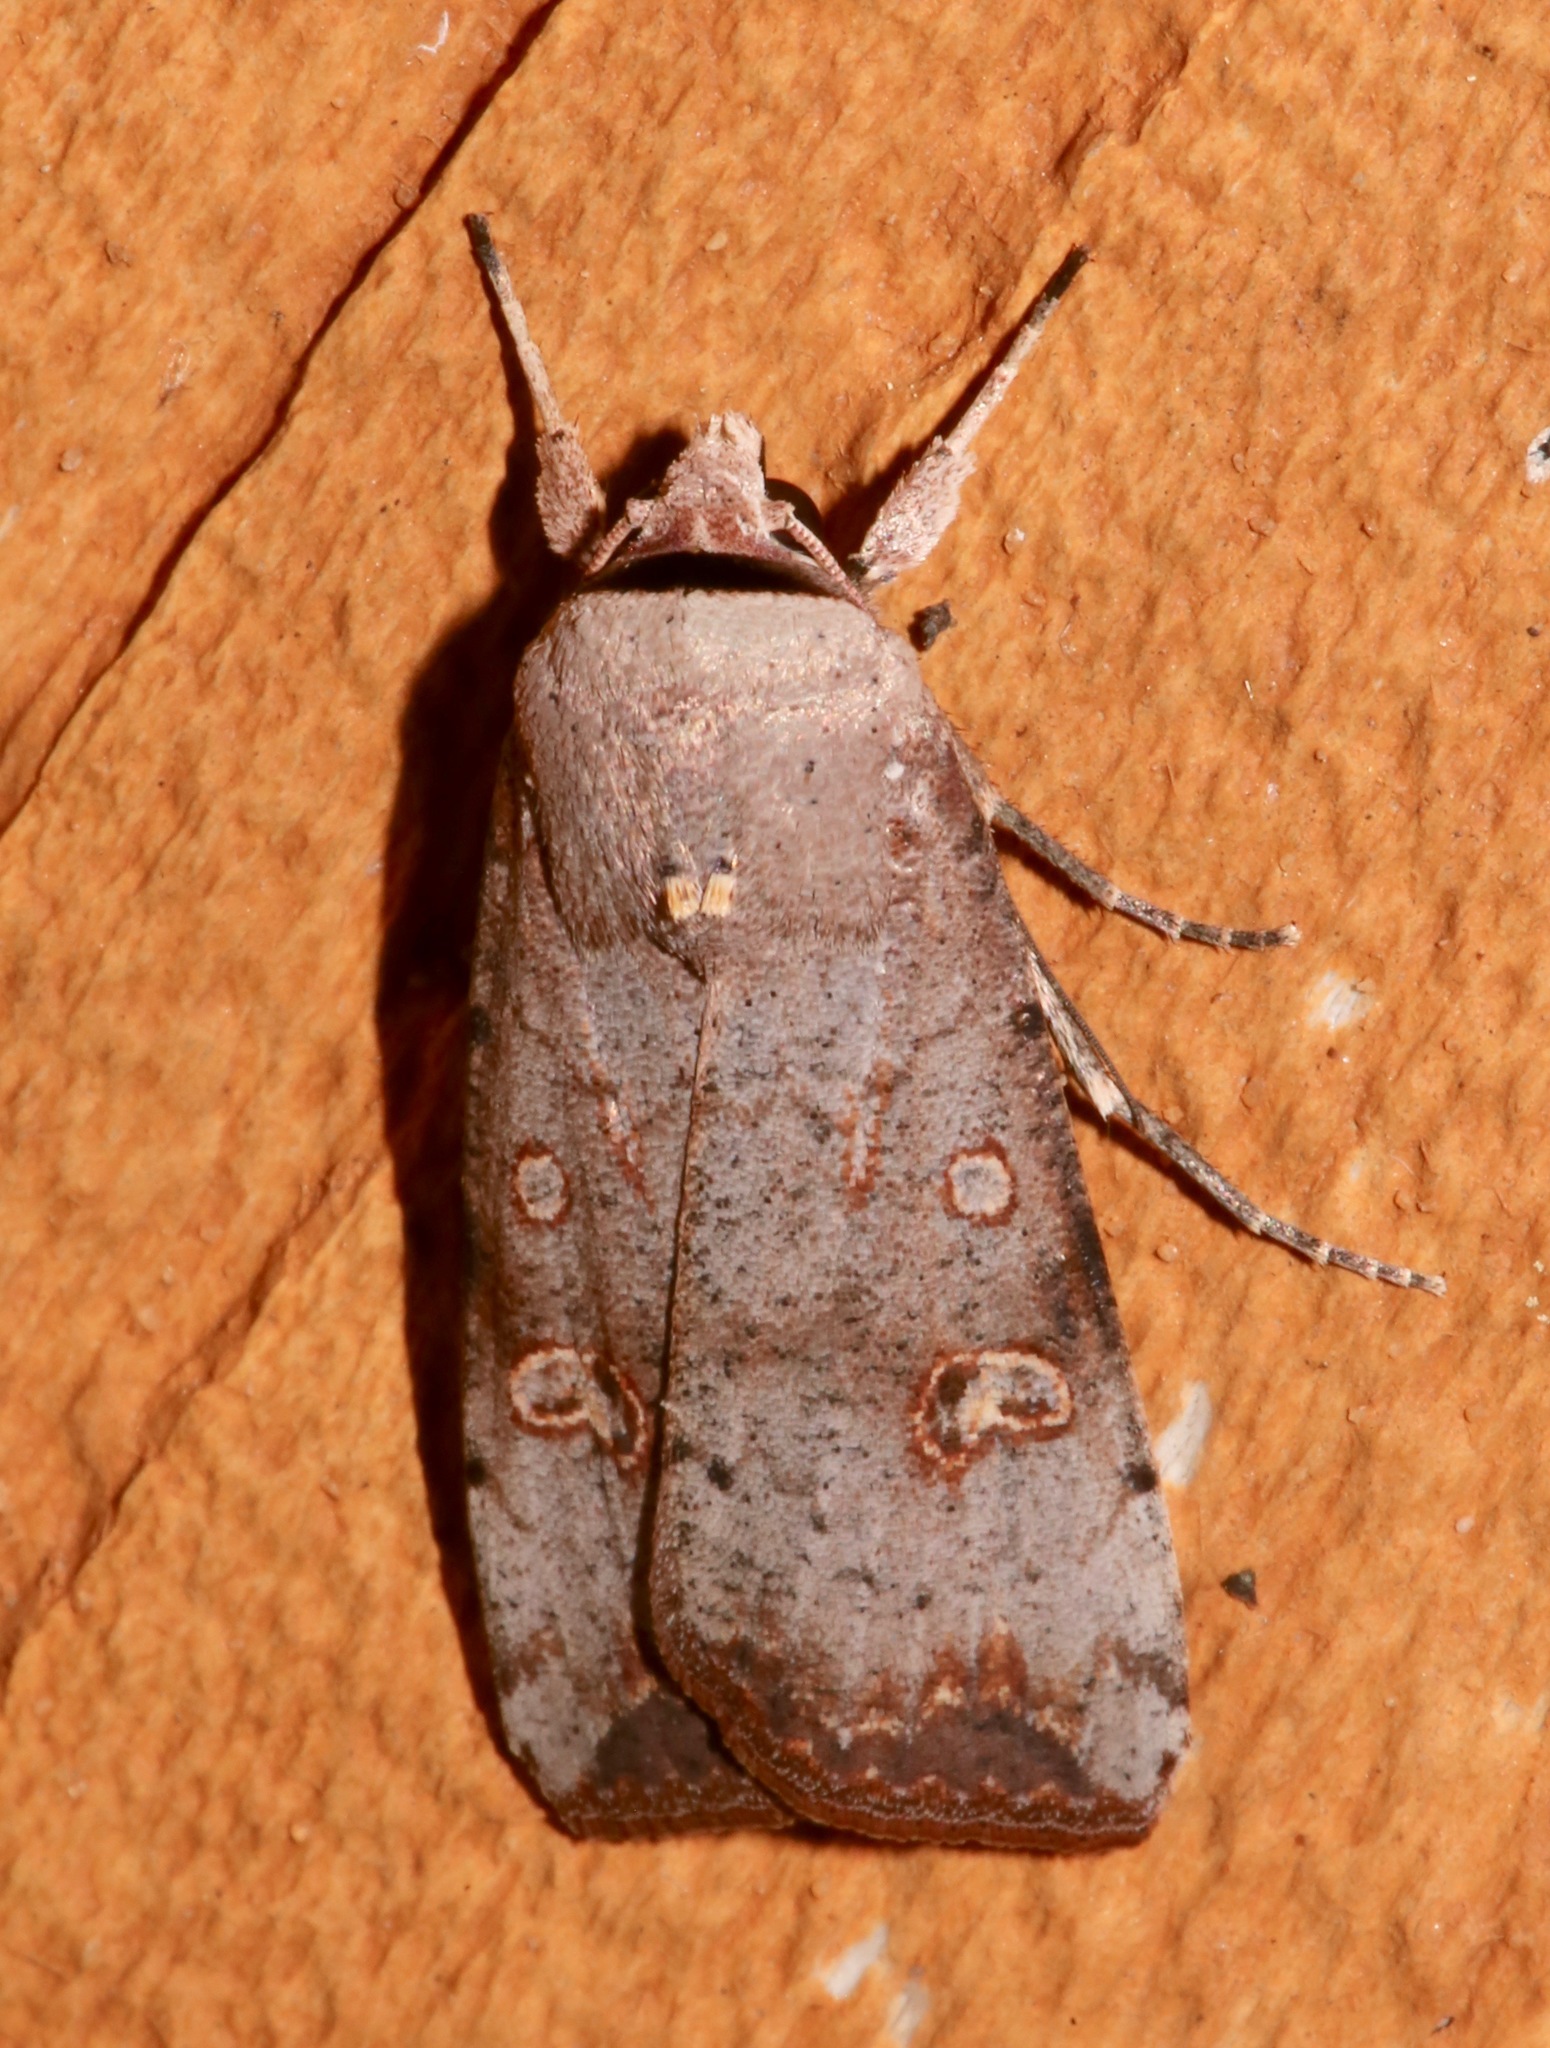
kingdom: Animalia
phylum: Arthropoda
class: Insecta
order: Lepidoptera
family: Noctuidae
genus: Anicla
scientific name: Anicla infecta
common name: Green cutworm
